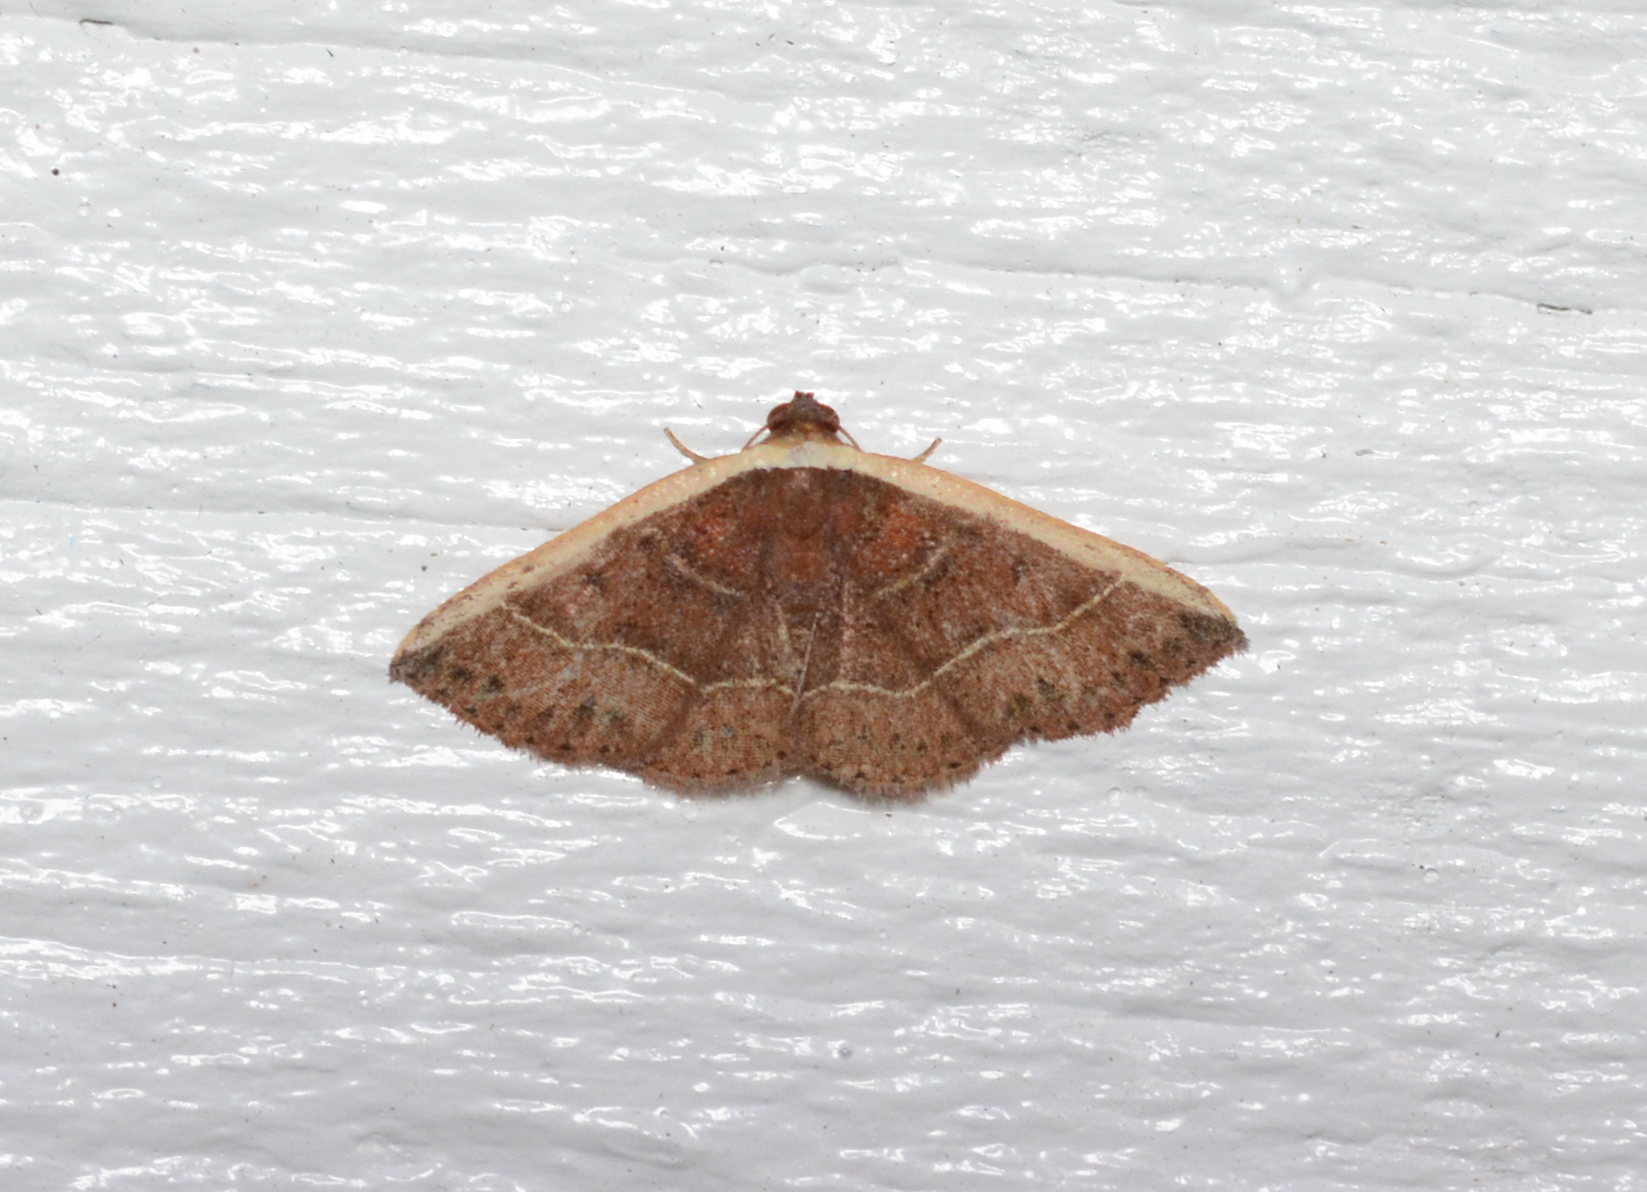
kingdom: Animalia
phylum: Arthropoda
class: Insecta
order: Lepidoptera
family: Noctuidae
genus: Ozarba
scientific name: Ozarba albocostaliata
